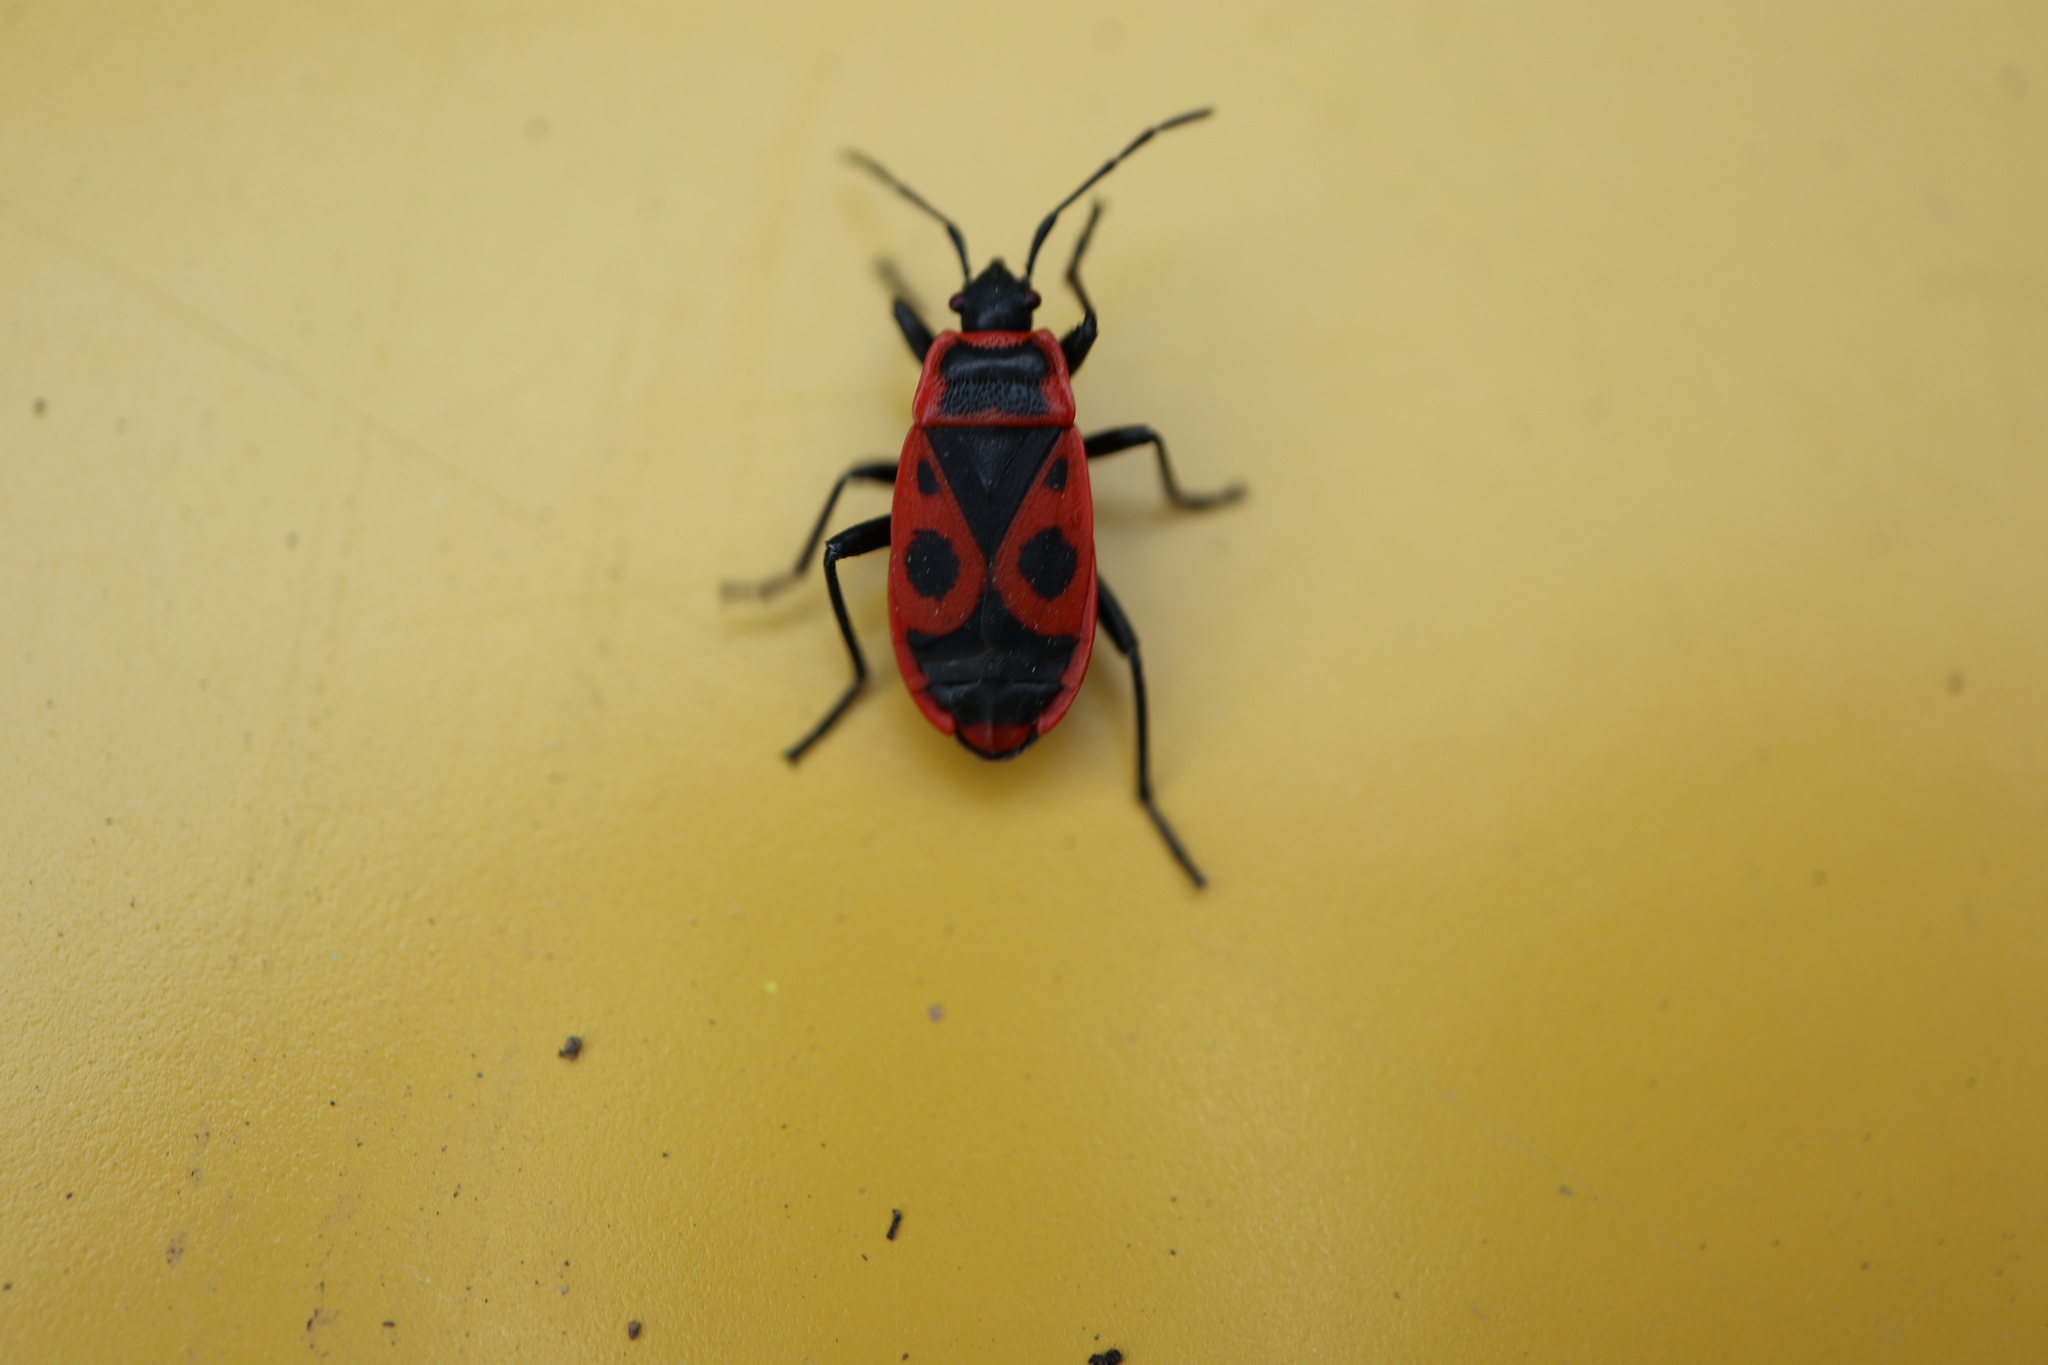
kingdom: Animalia
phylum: Arthropoda
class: Insecta
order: Hemiptera
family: Pyrrhocoridae
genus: Pyrrhocoris
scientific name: Pyrrhocoris apterus
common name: Firebug
